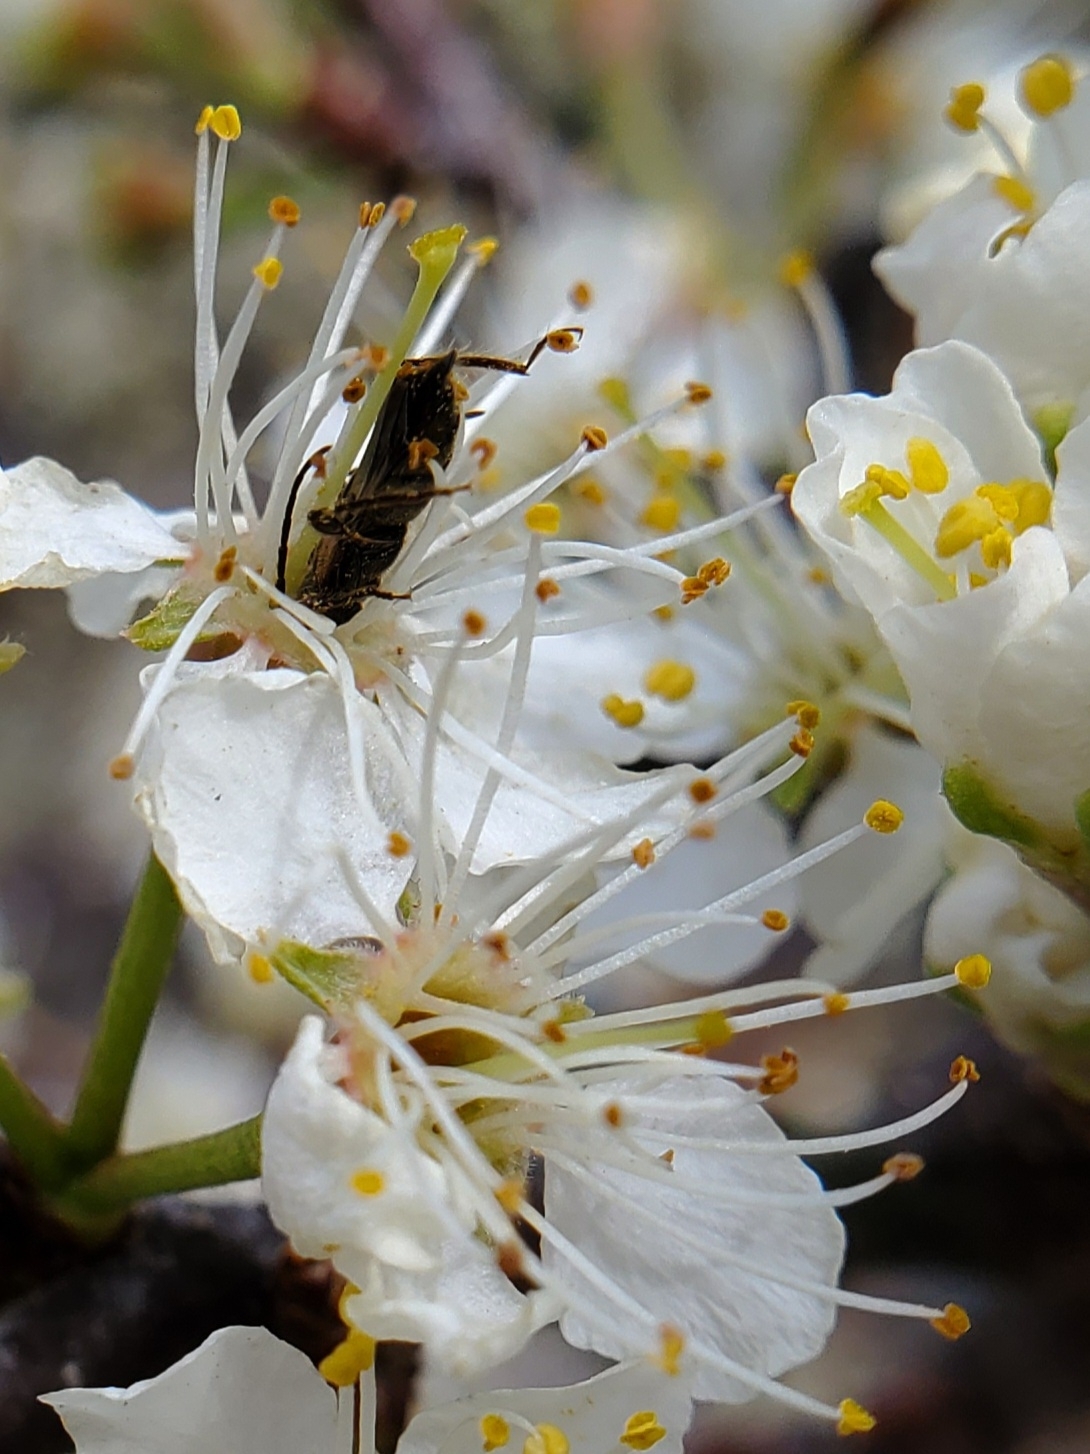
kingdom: Animalia
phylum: Arthropoda
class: Insecta
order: Coleoptera
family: Cerambycidae
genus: Molorchus
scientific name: Molorchus bimaculatus
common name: Bimaculate longhorn beetle
